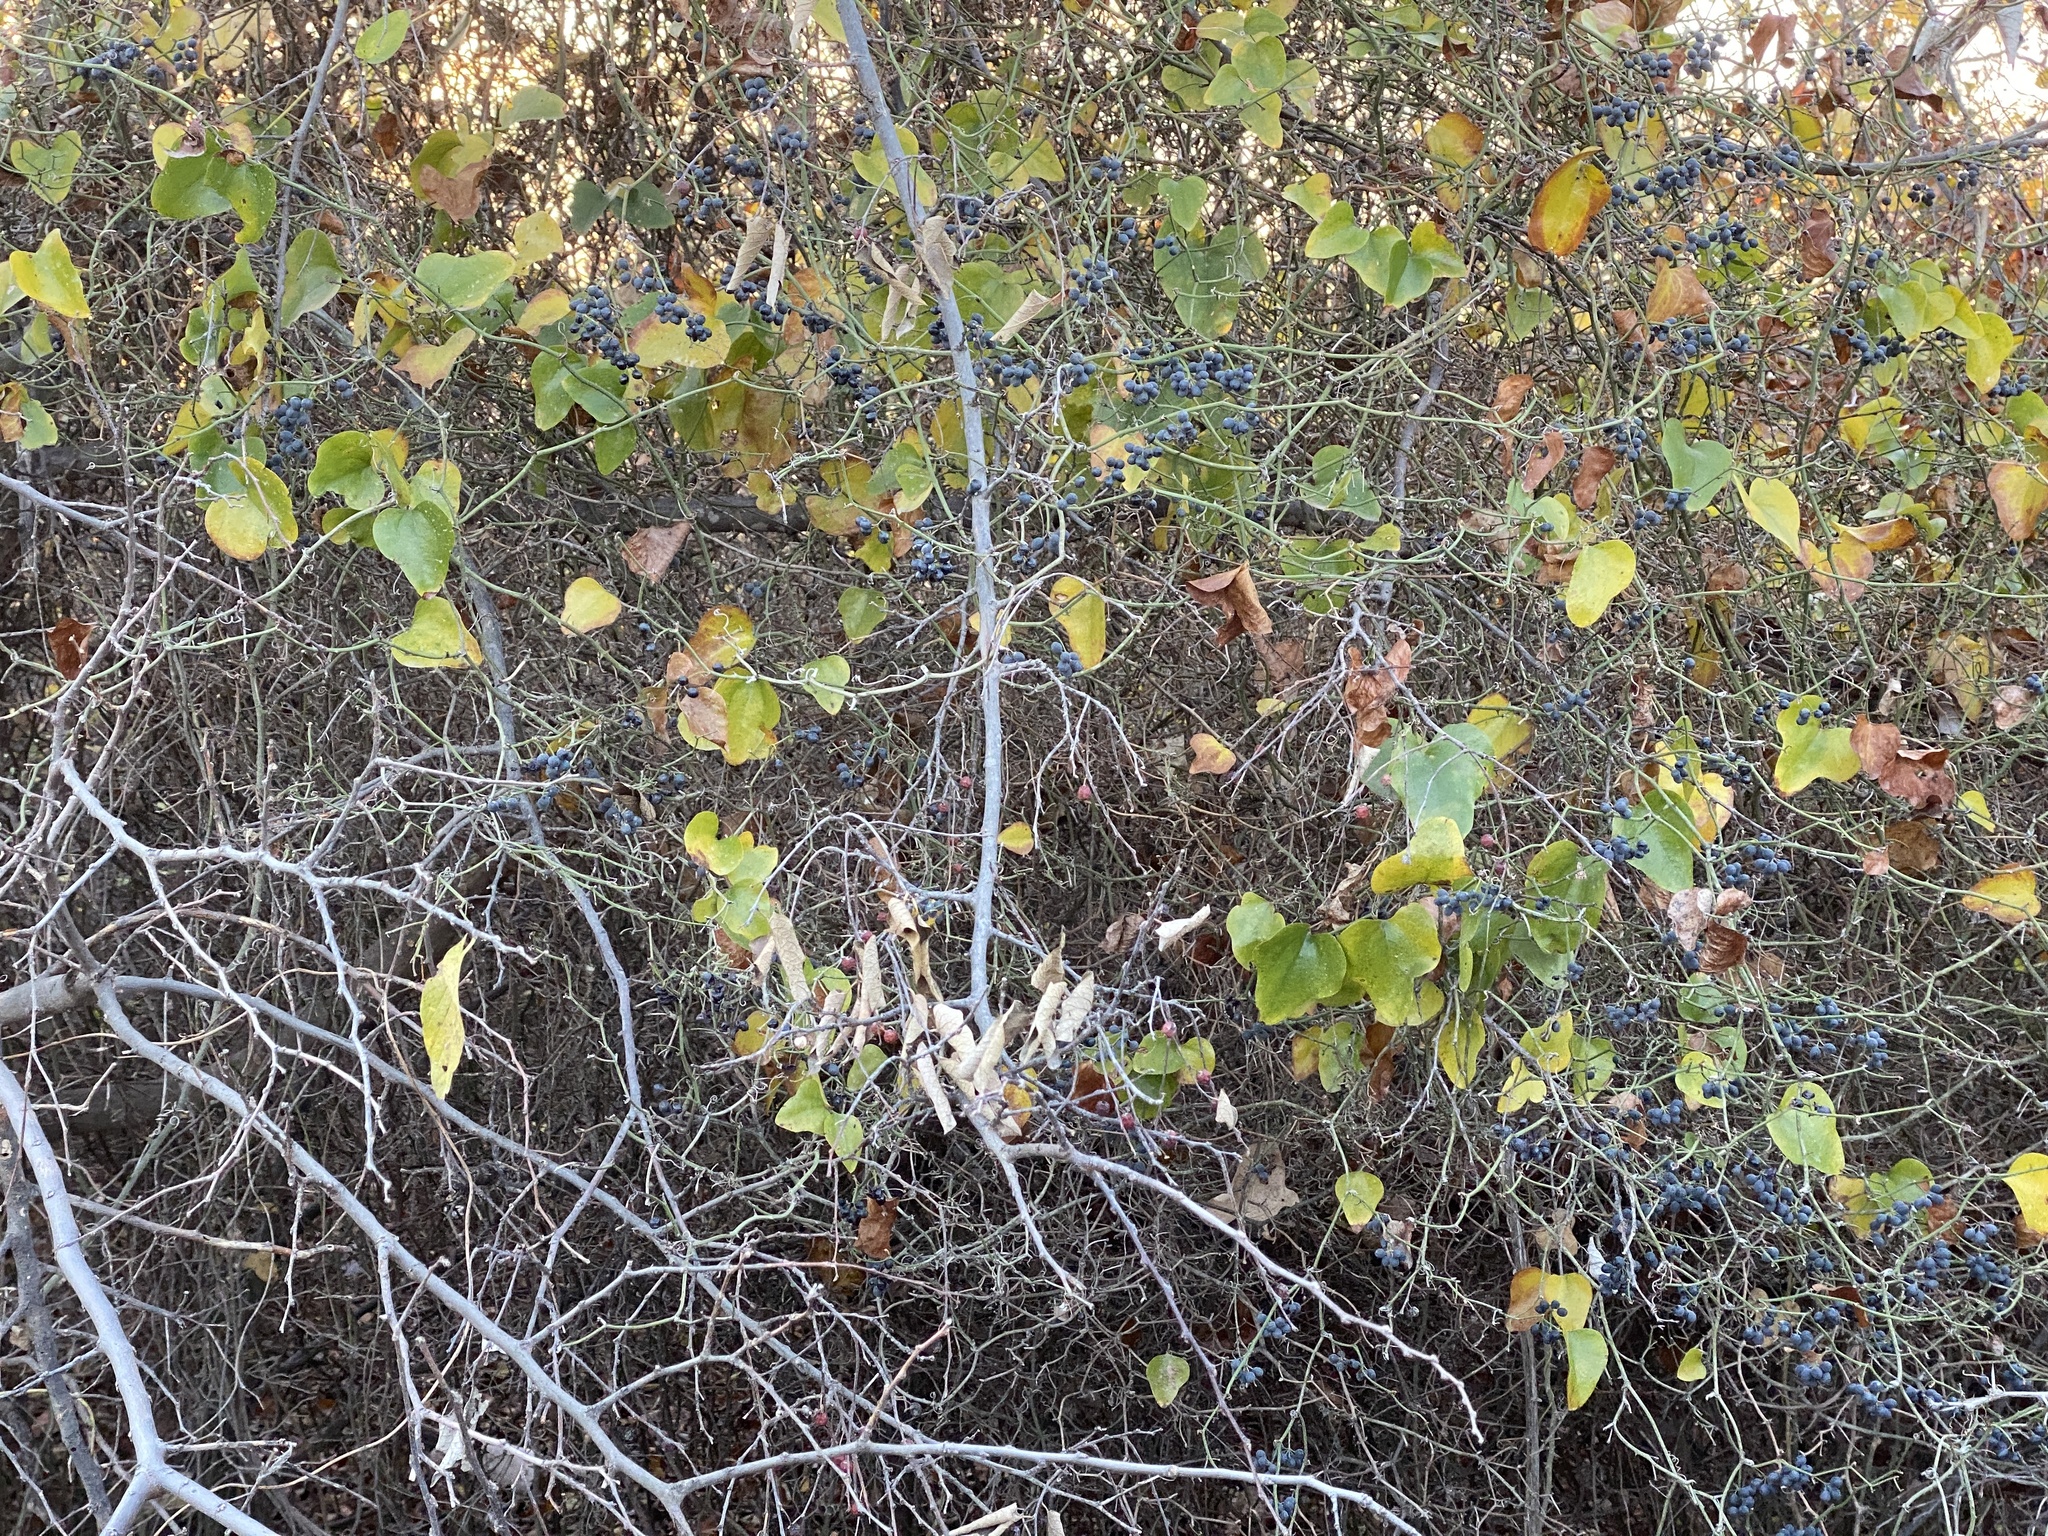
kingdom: Plantae
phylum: Tracheophyta
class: Liliopsida
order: Liliales
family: Smilacaceae
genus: Smilax
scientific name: Smilax bona-nox
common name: Catbrier
